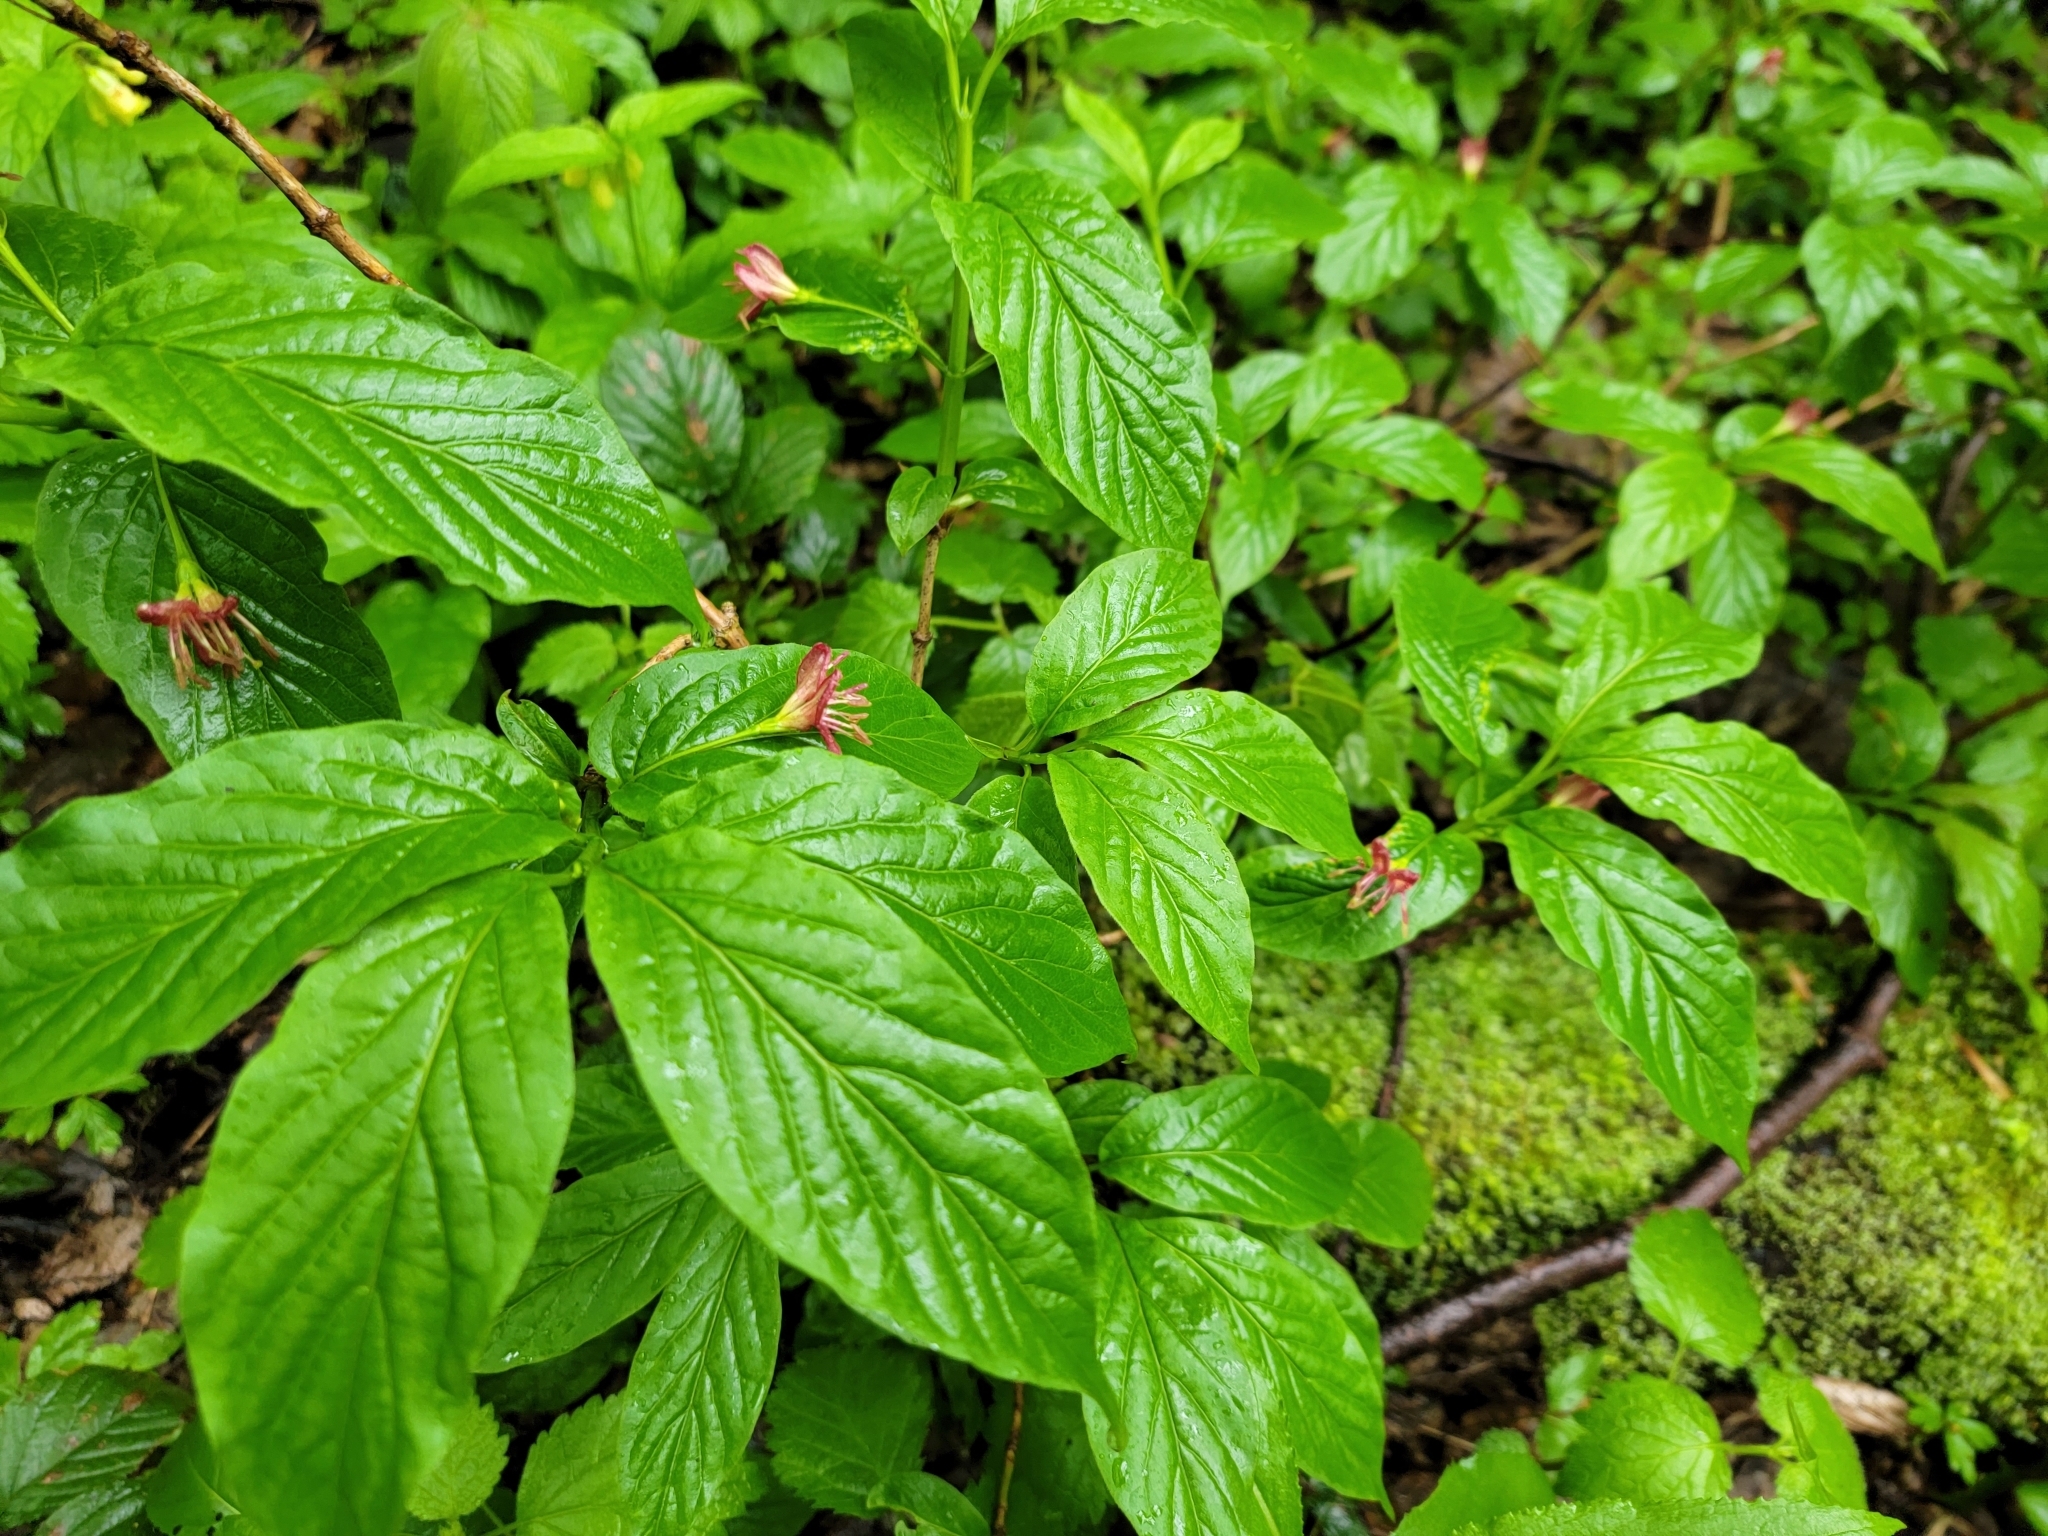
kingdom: Plantae
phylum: Tracheophyta
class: Magnoliopsida
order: Dipsacales
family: Caprifoliaceae
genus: Lonicera
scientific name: Lonicera alpigena
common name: Alpine honeysuckle
